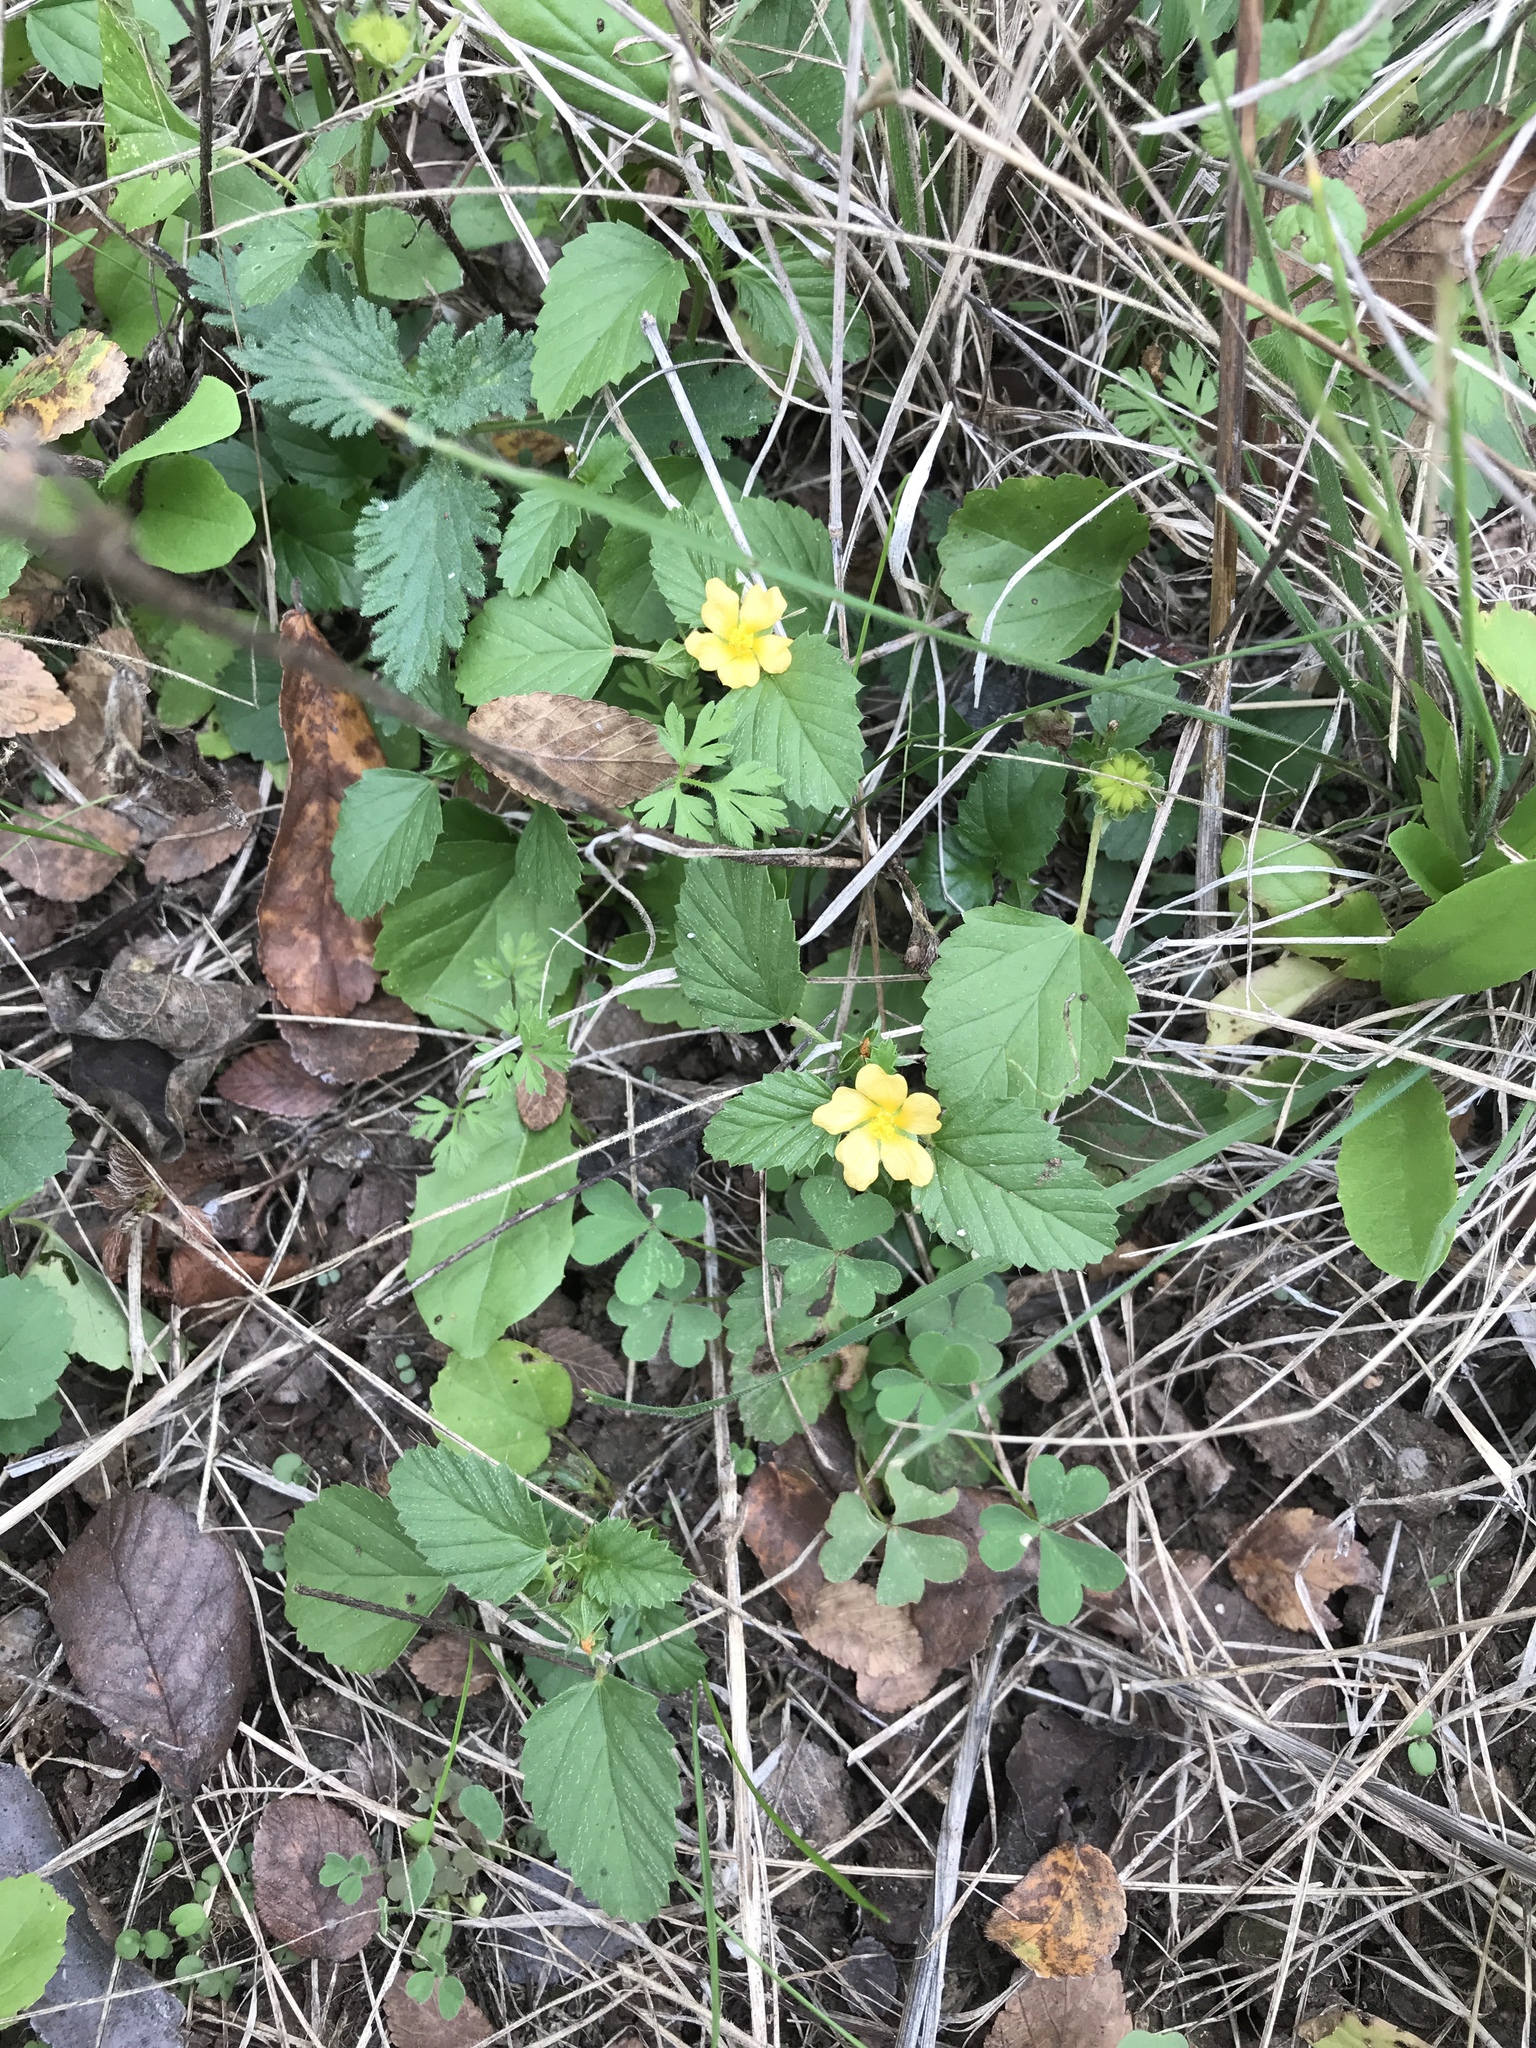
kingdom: Plantae
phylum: Tracheophyta
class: Magnoliopsida
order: Malvales
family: Malvaceae
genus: Malvastrum
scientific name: Malvastrum coromandelianum
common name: Threelobe false mallow
